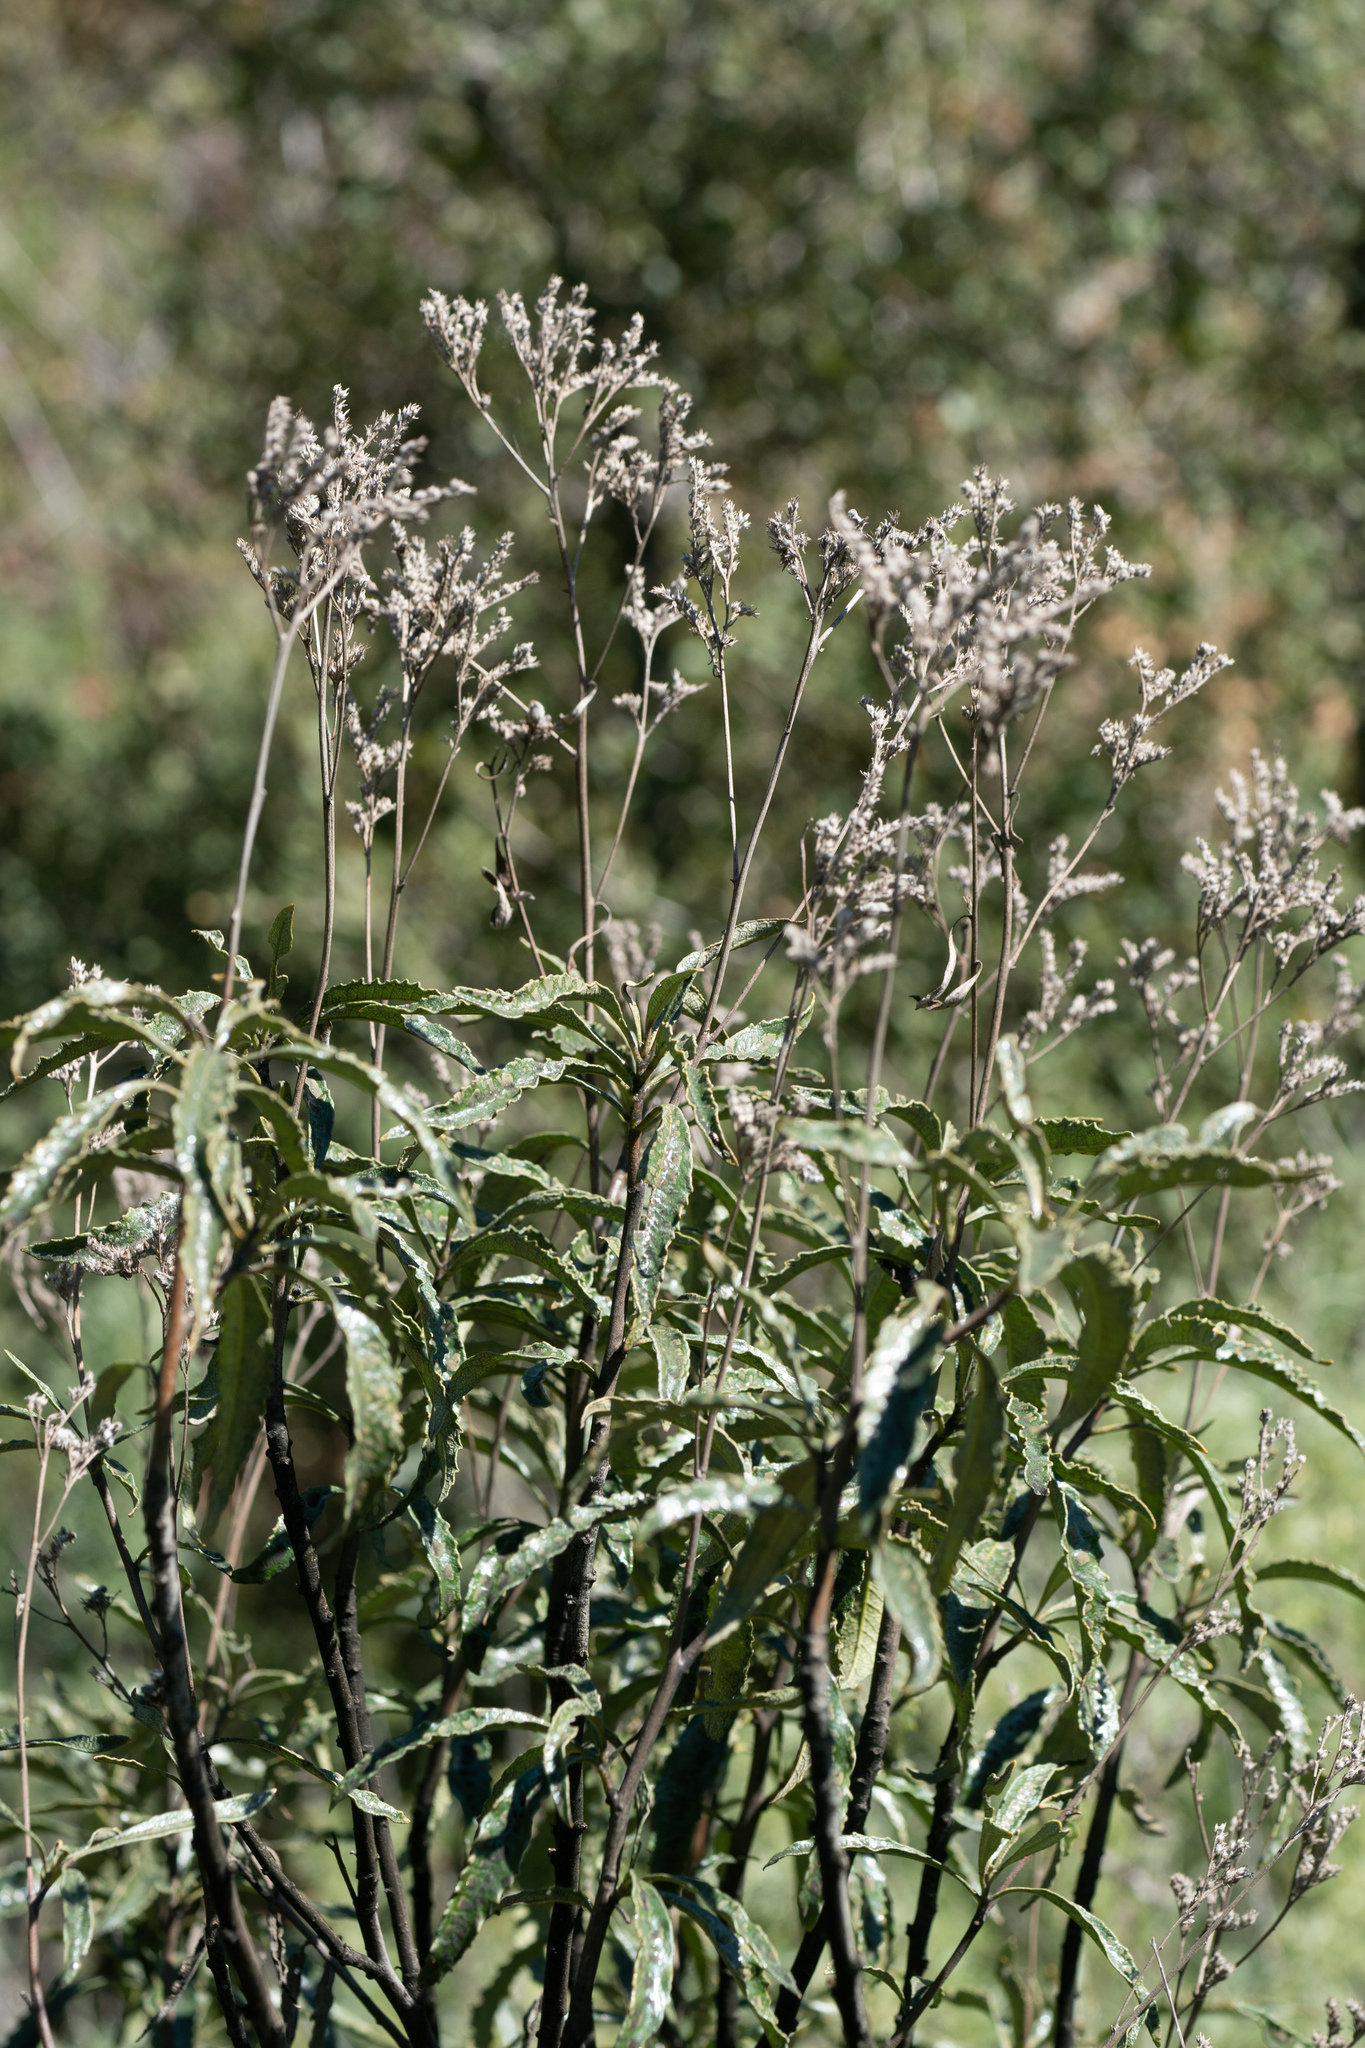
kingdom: Plantae
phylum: Tracheophyta
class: Magnoliopsida
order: Boraginales
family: Namaceae
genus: Eriodictyon
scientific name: Eriodictyon trichocalyx
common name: Hairy yerba-santa
